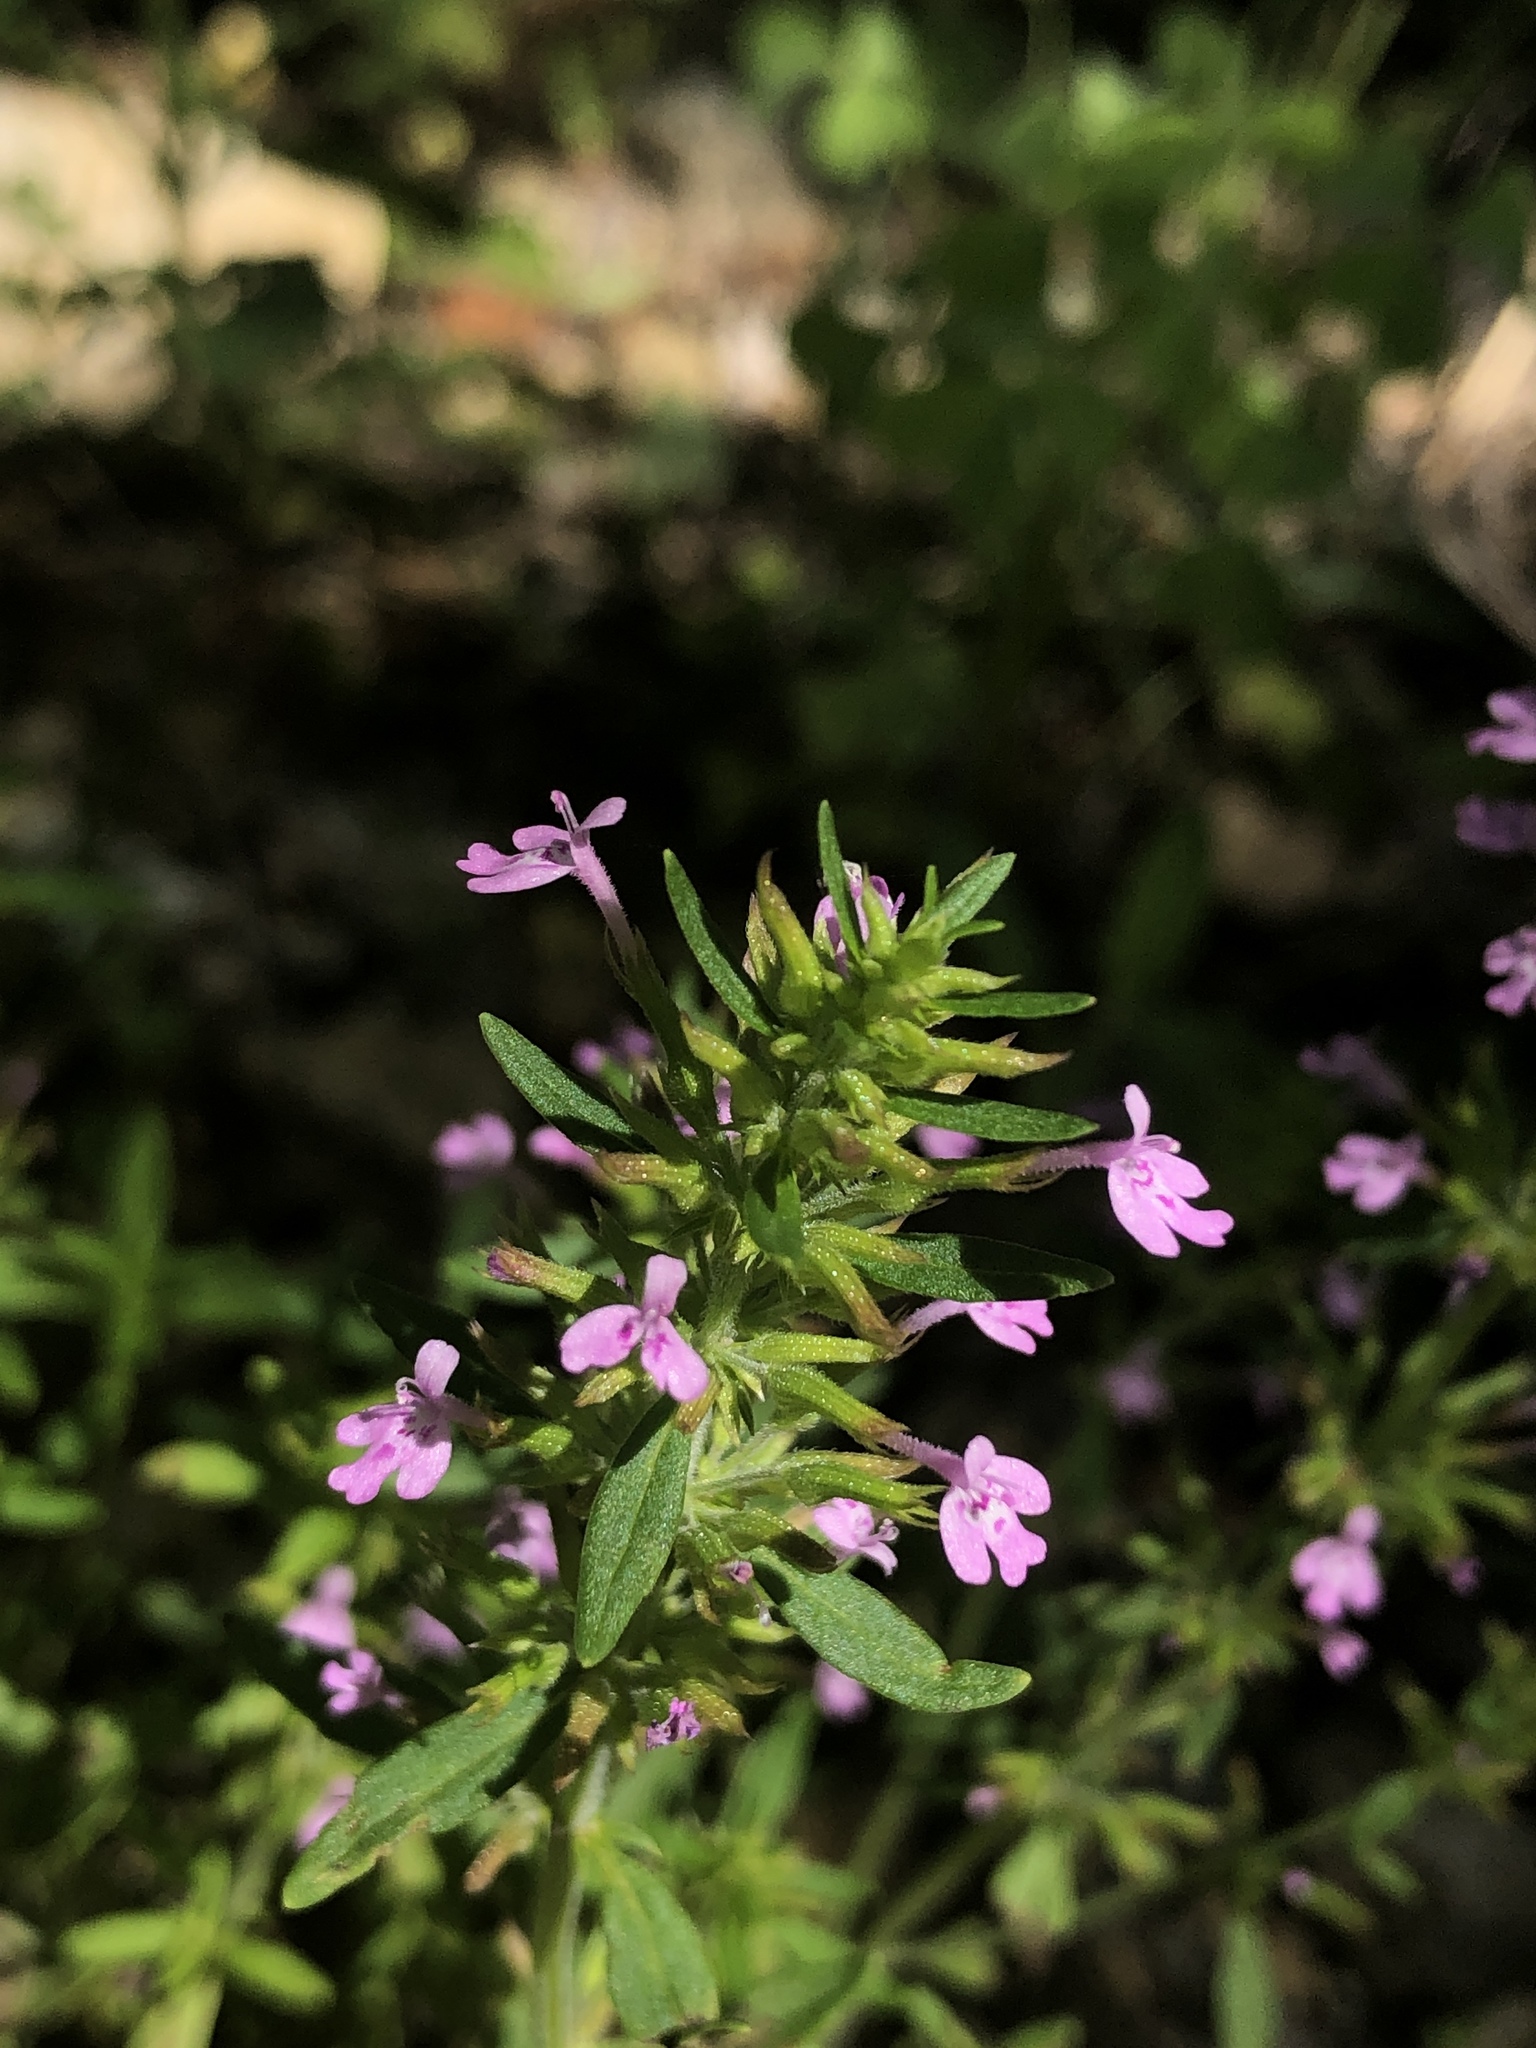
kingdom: Plantae
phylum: Tracheophyta
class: Magnoliopsida
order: Lamiales
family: Lamiaceae
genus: Hedeoma
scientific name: Hedeoma acinoides
